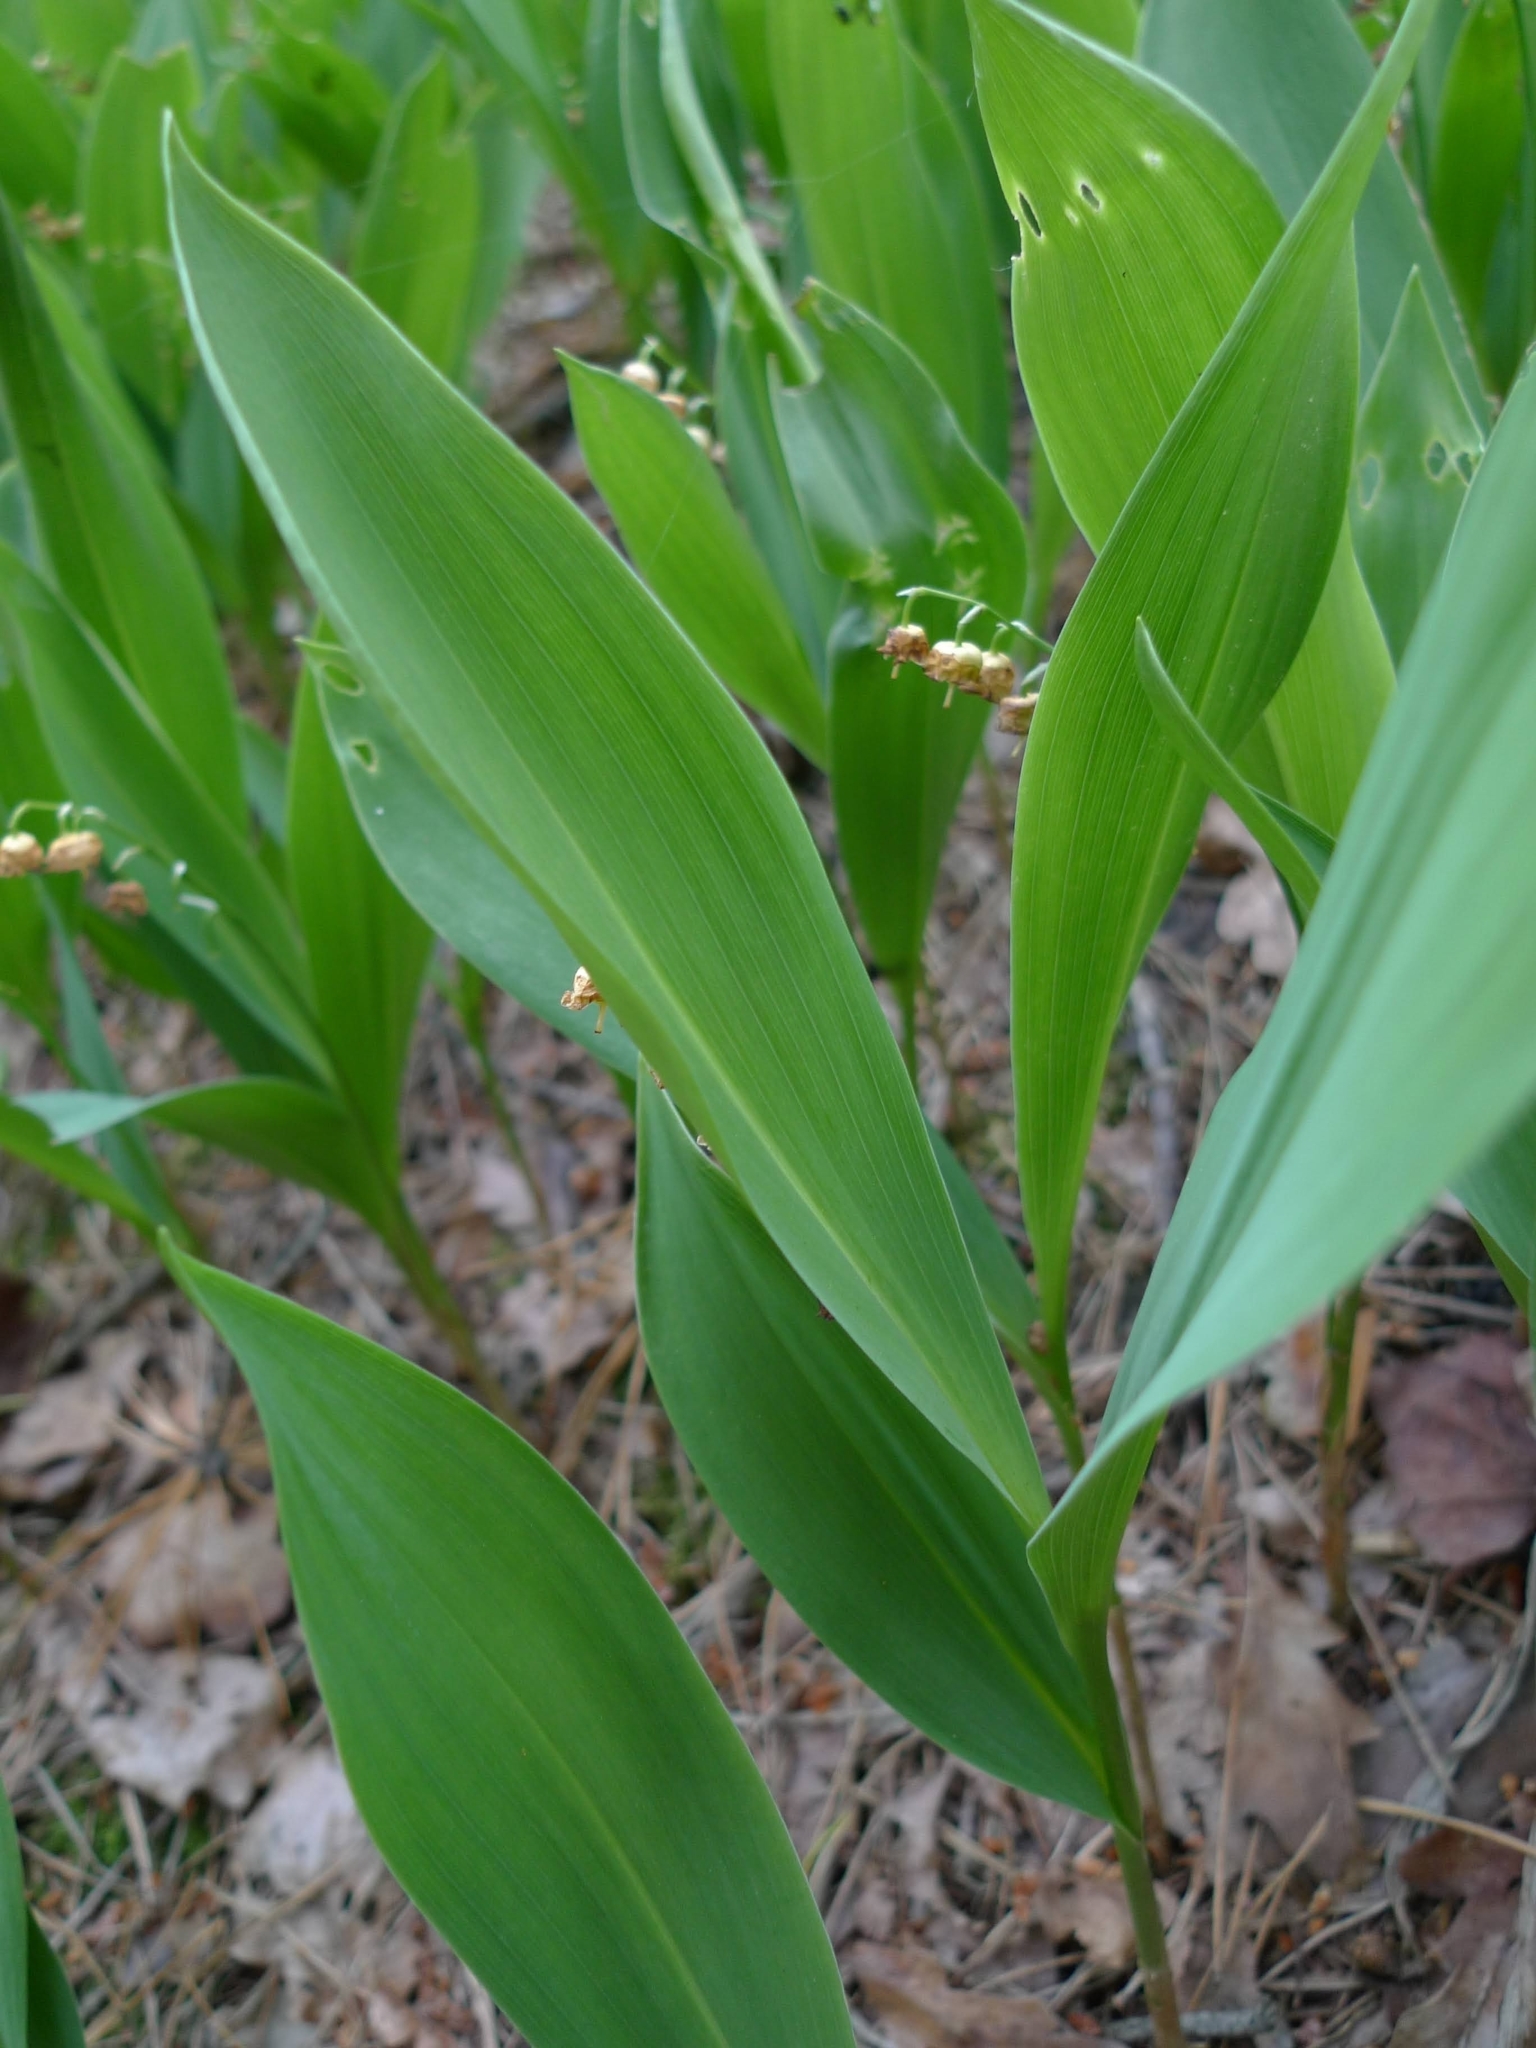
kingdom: Plantae
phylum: Tracheophyta
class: Liliopsida
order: Asparagales
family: Asparagaceae
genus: Convallaria
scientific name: Convallaria majalis
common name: Lily-of-the-valley
